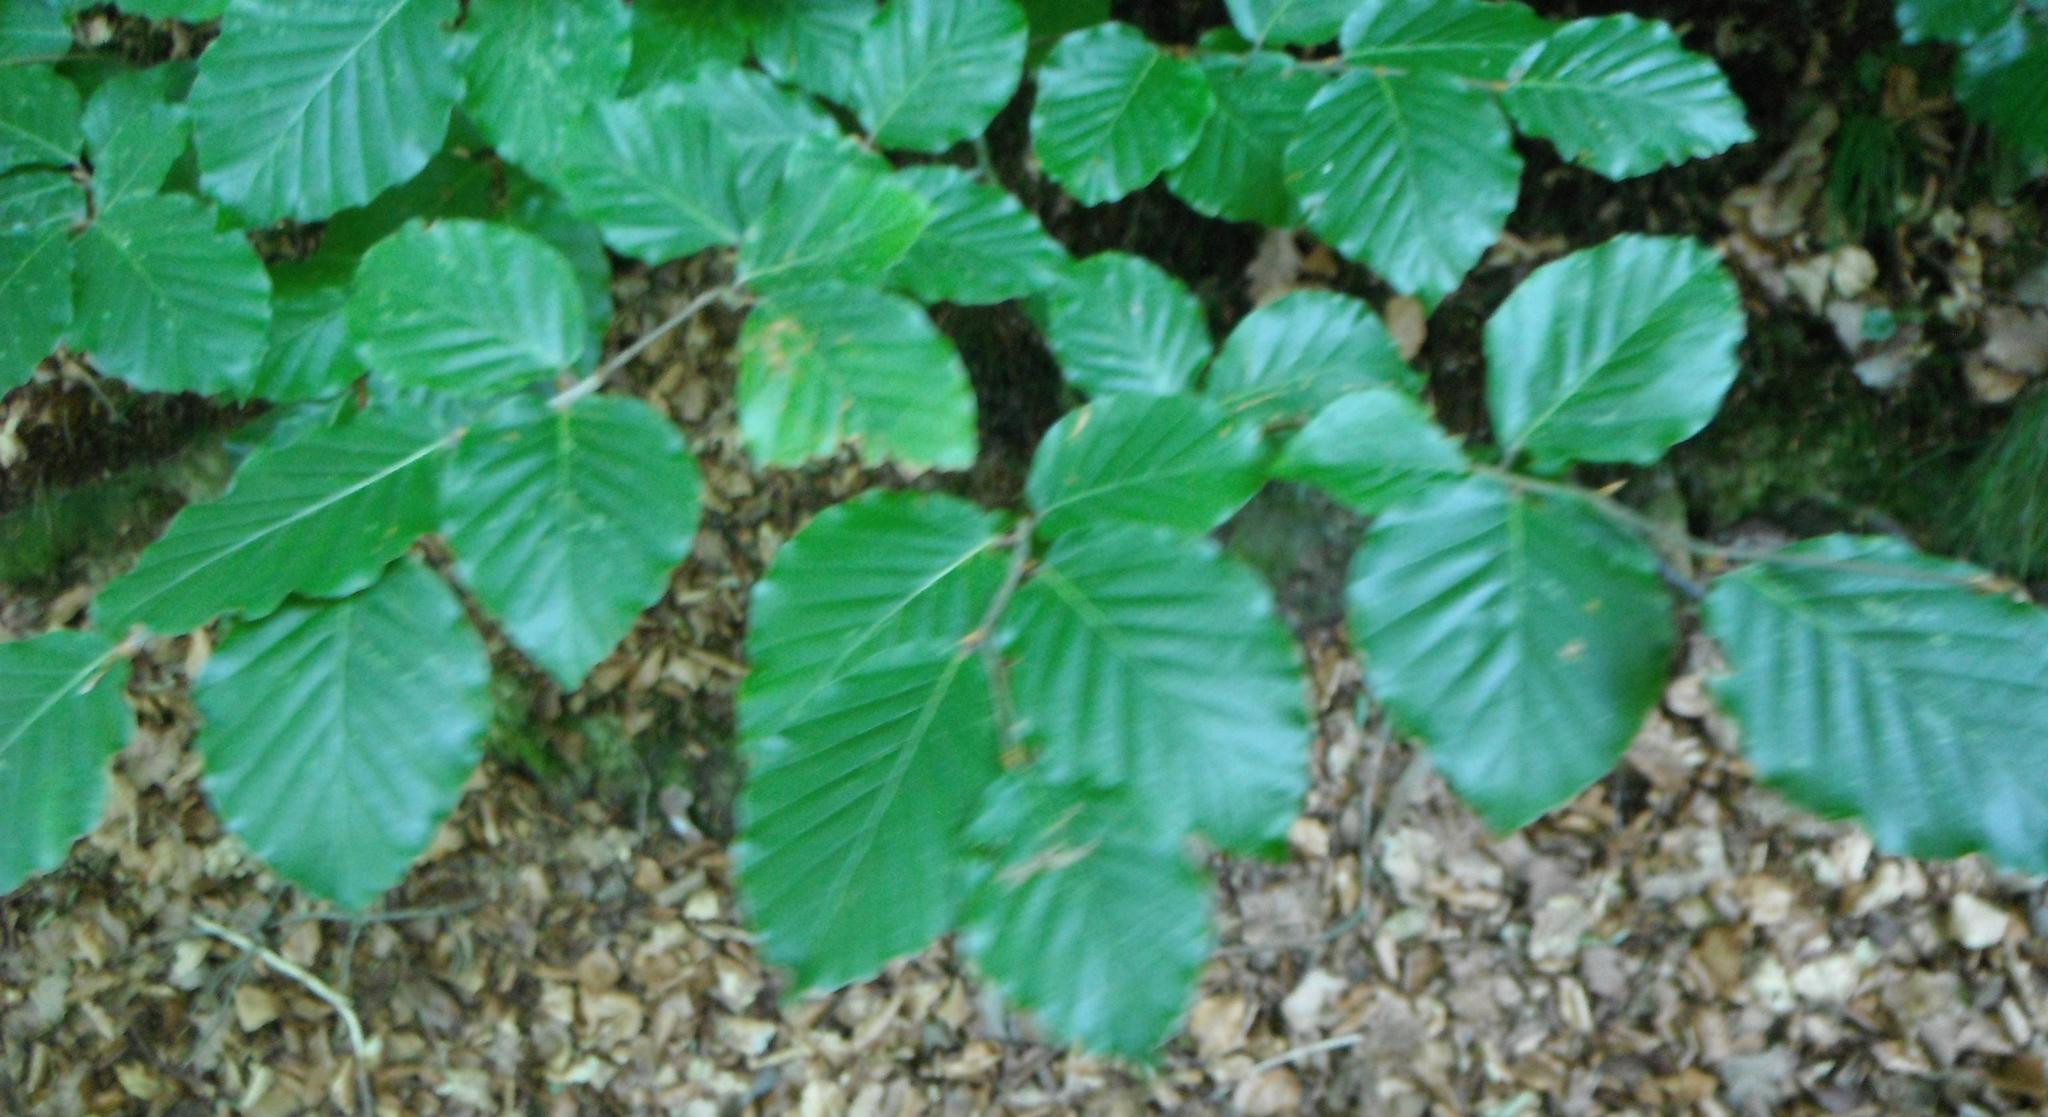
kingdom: Plantae
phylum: Tracheophyta
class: Magnoliopsida
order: Fagales
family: Fagaceae
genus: Fagus
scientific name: Fagus sylvatica
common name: Beech
